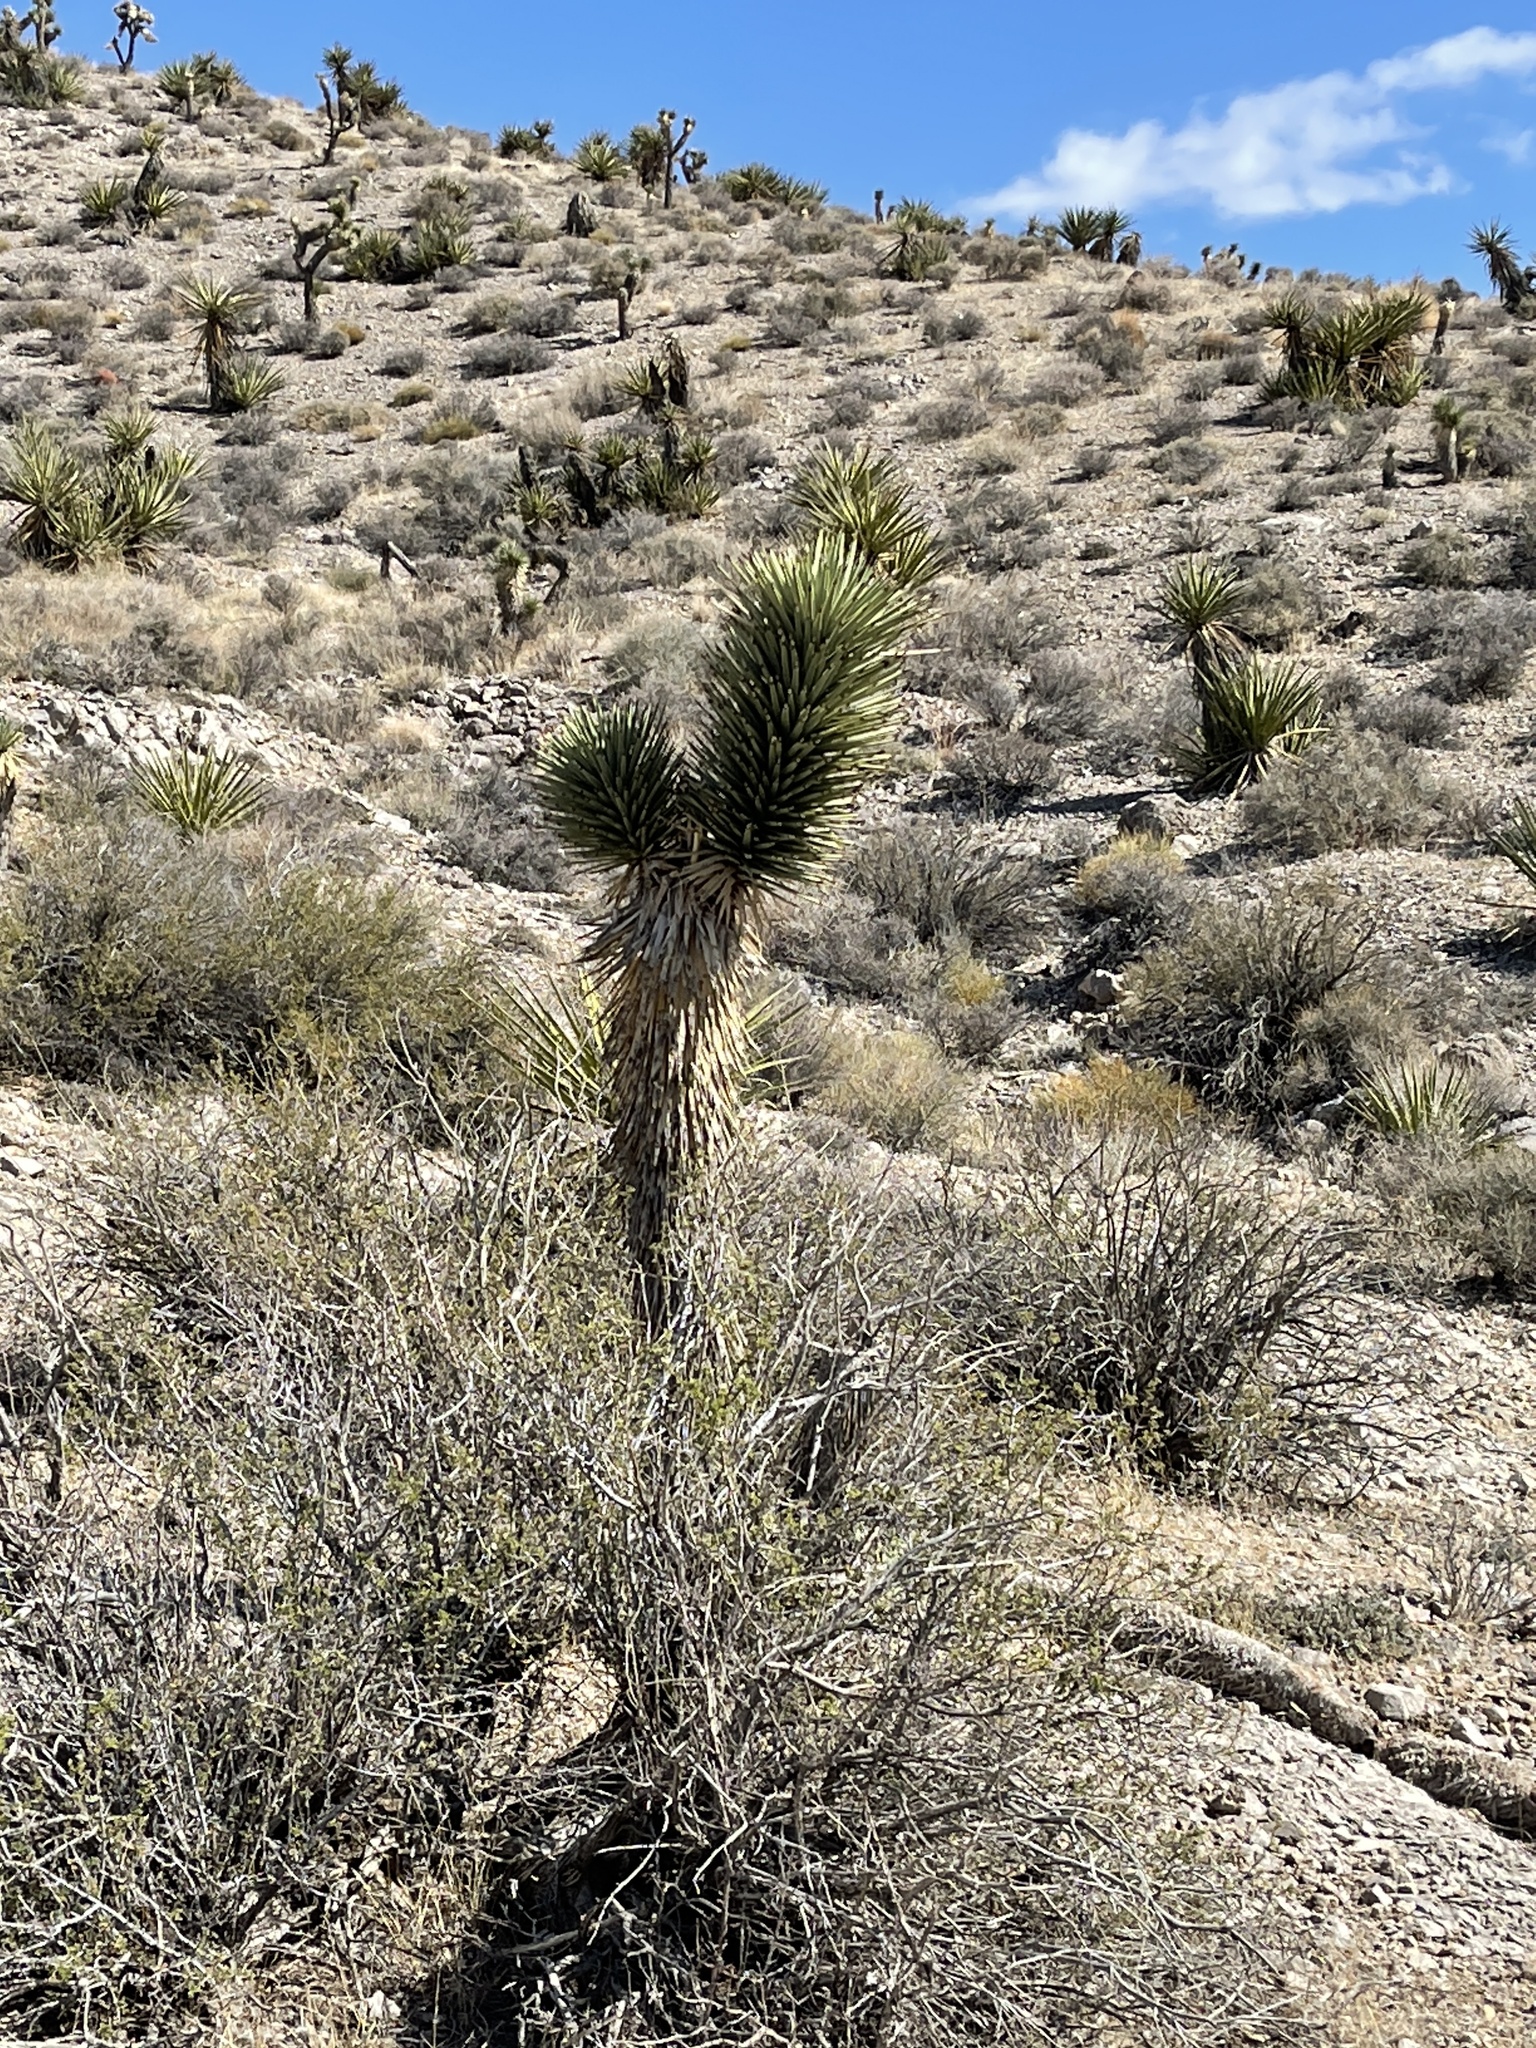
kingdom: Plantae
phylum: Tracheophyta
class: Liliopsida
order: Asparagales
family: Asparagaceae
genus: Yucca
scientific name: Yucca brevifolia
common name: Joshua tree
